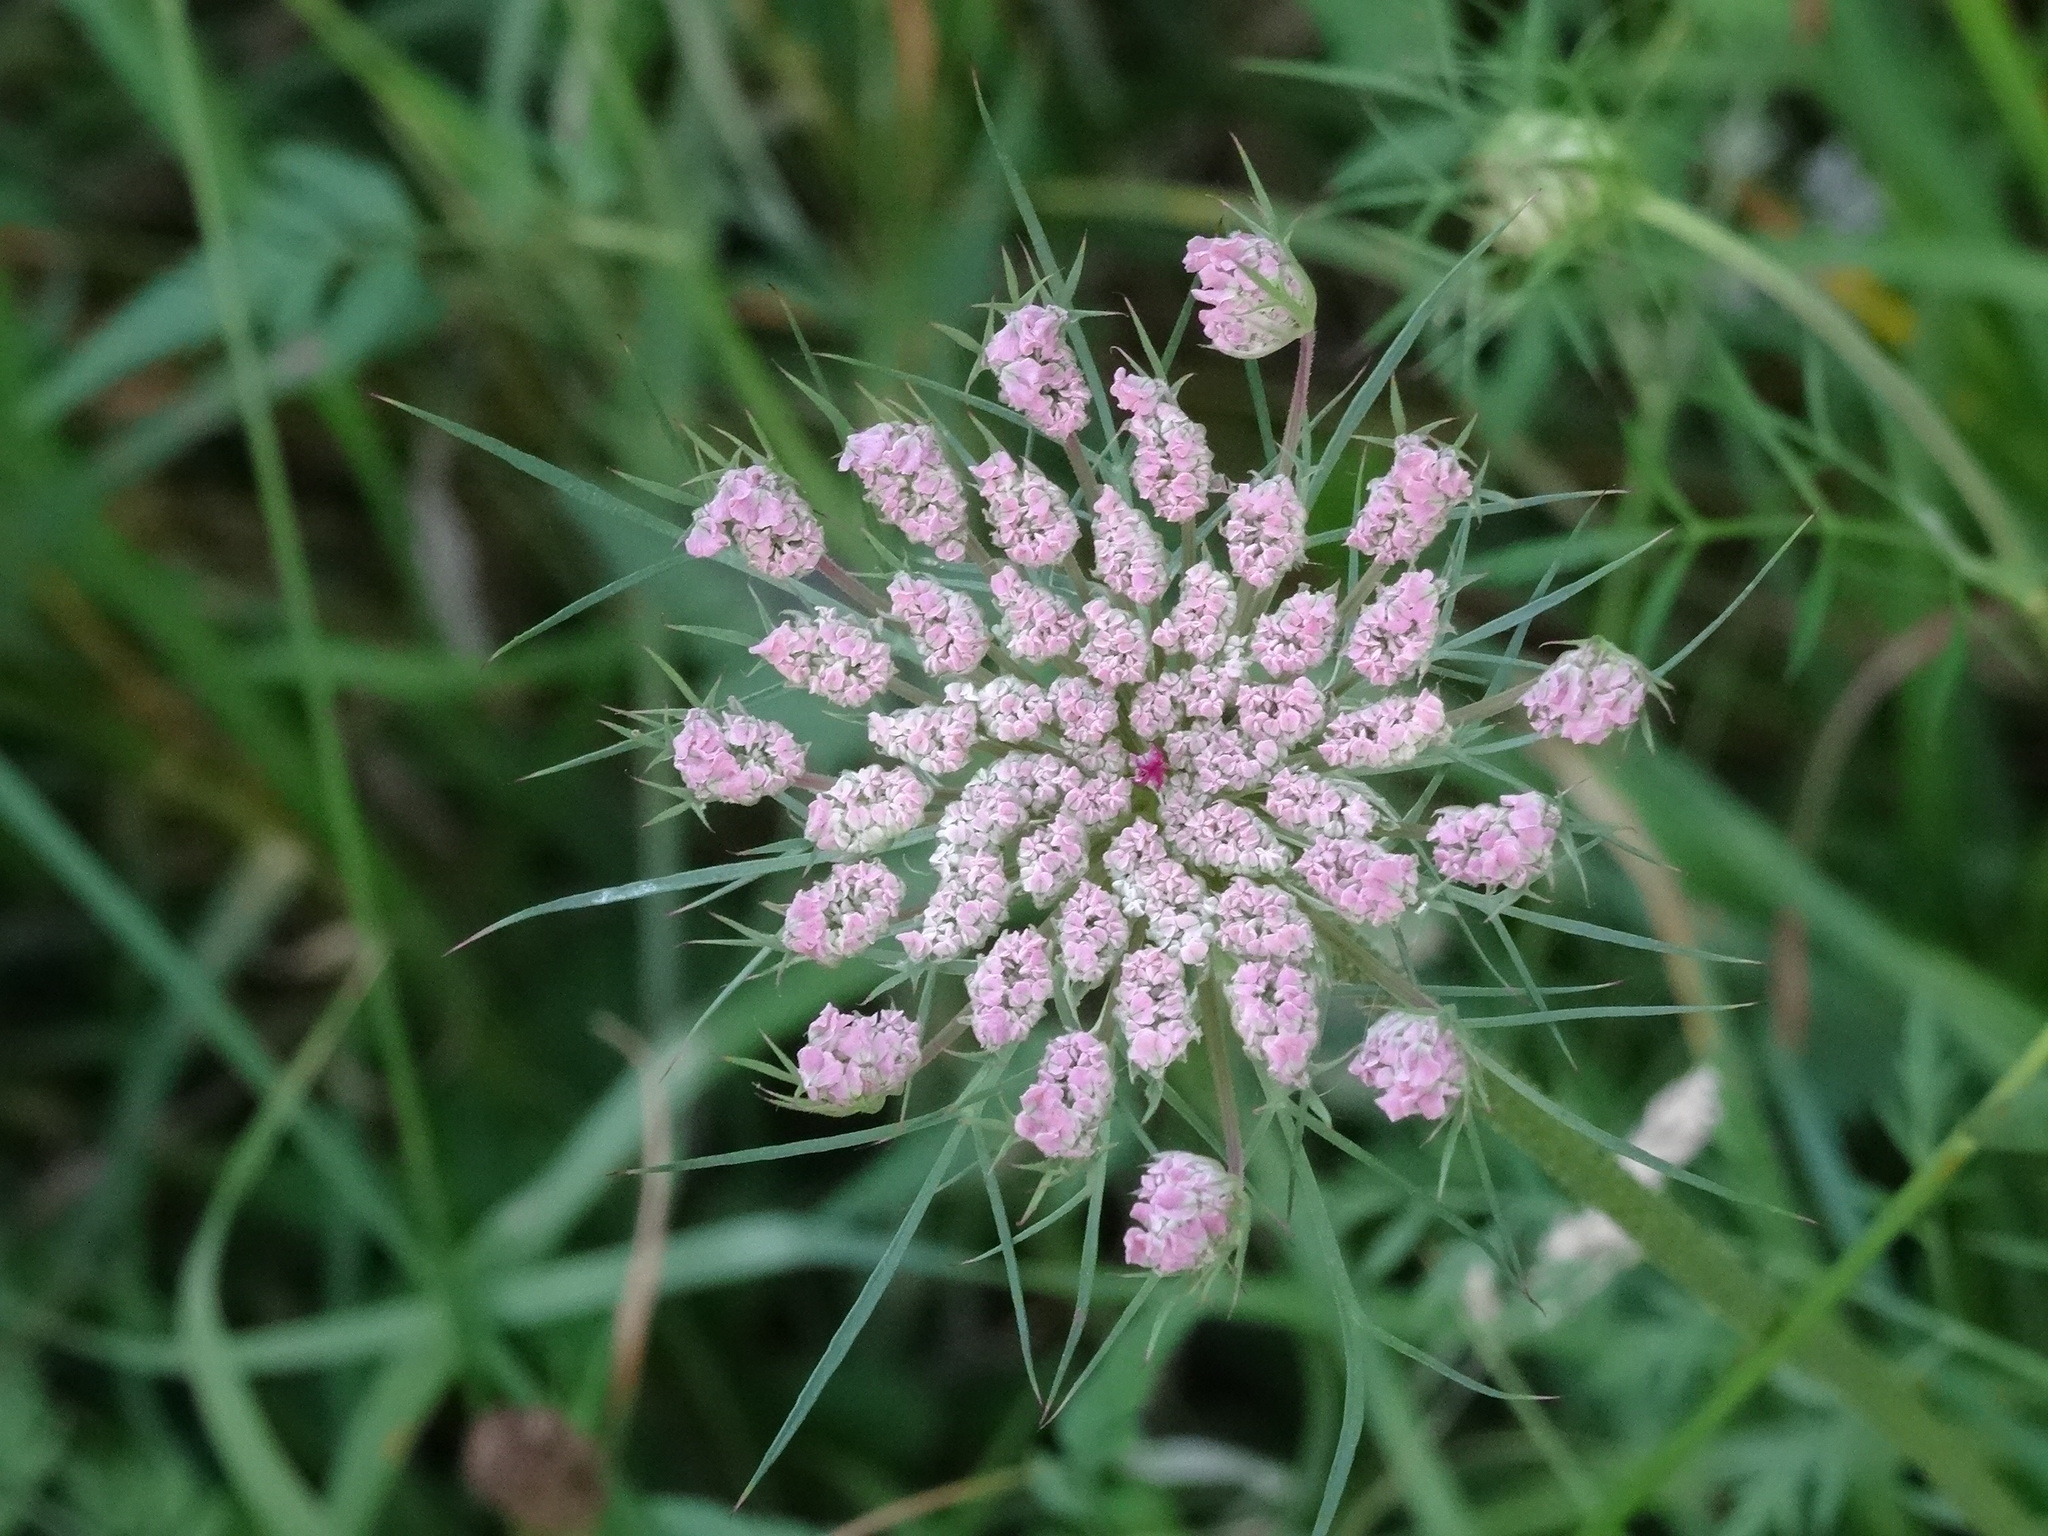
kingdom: Plantae
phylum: Tracheophyta
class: Magnoliopsida
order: Apiales
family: Apiaceae
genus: Daucus
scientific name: Daucus carota
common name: Wild carrot
